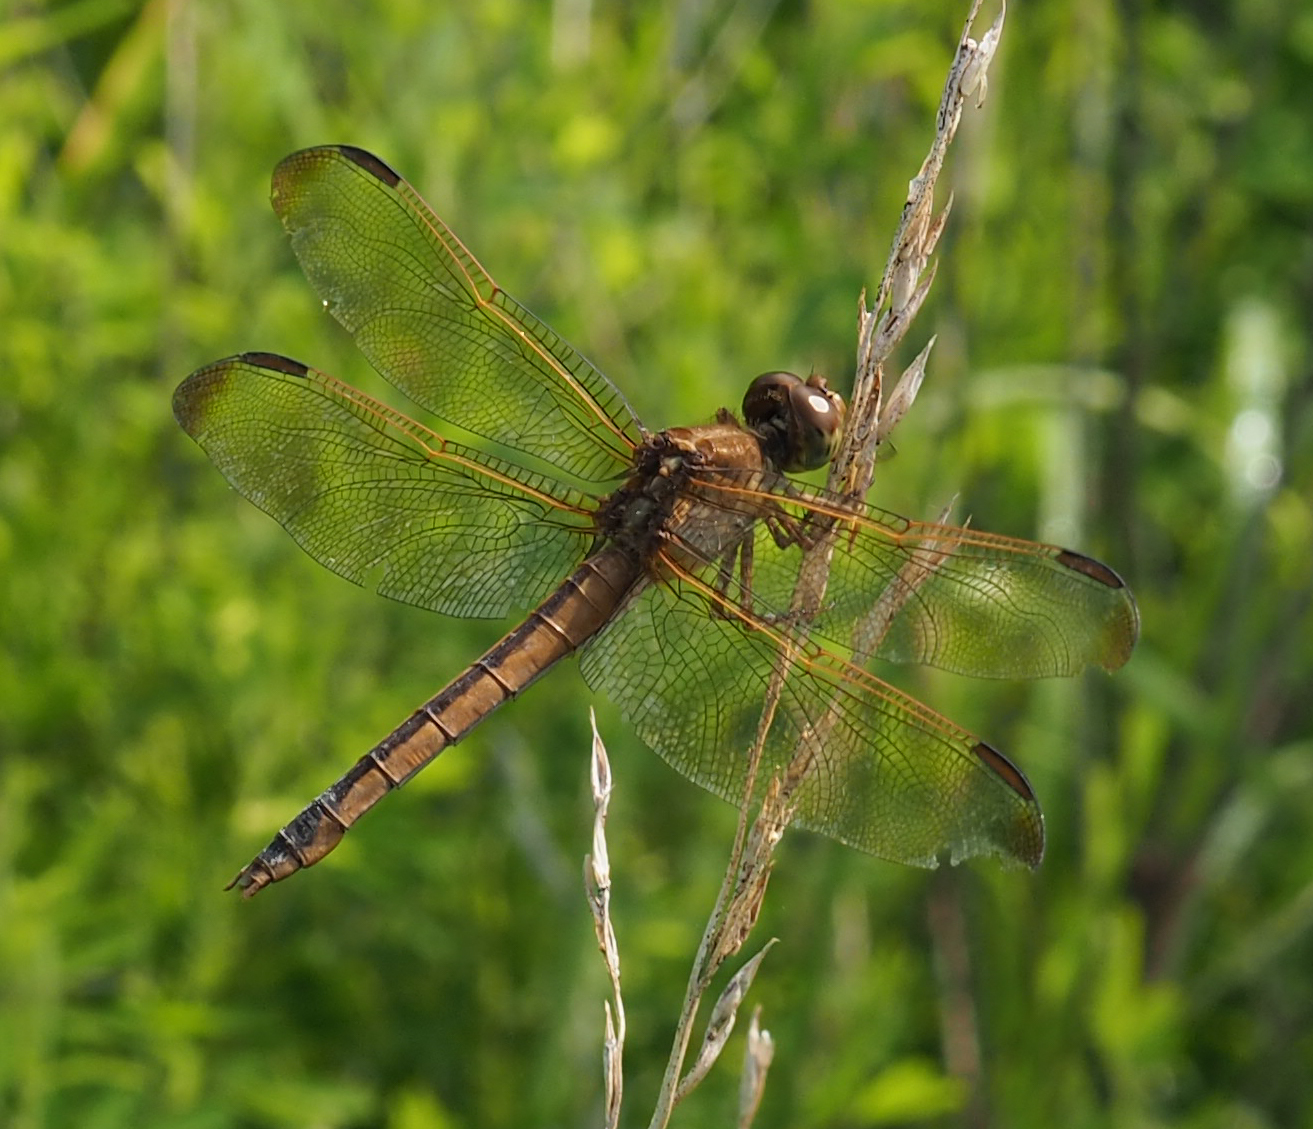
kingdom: Animalia
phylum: Arthropoda
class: Insecta
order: Odonata
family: Libellulidae
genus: Libellula
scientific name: Libellula needhami
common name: Needham's skimmer
